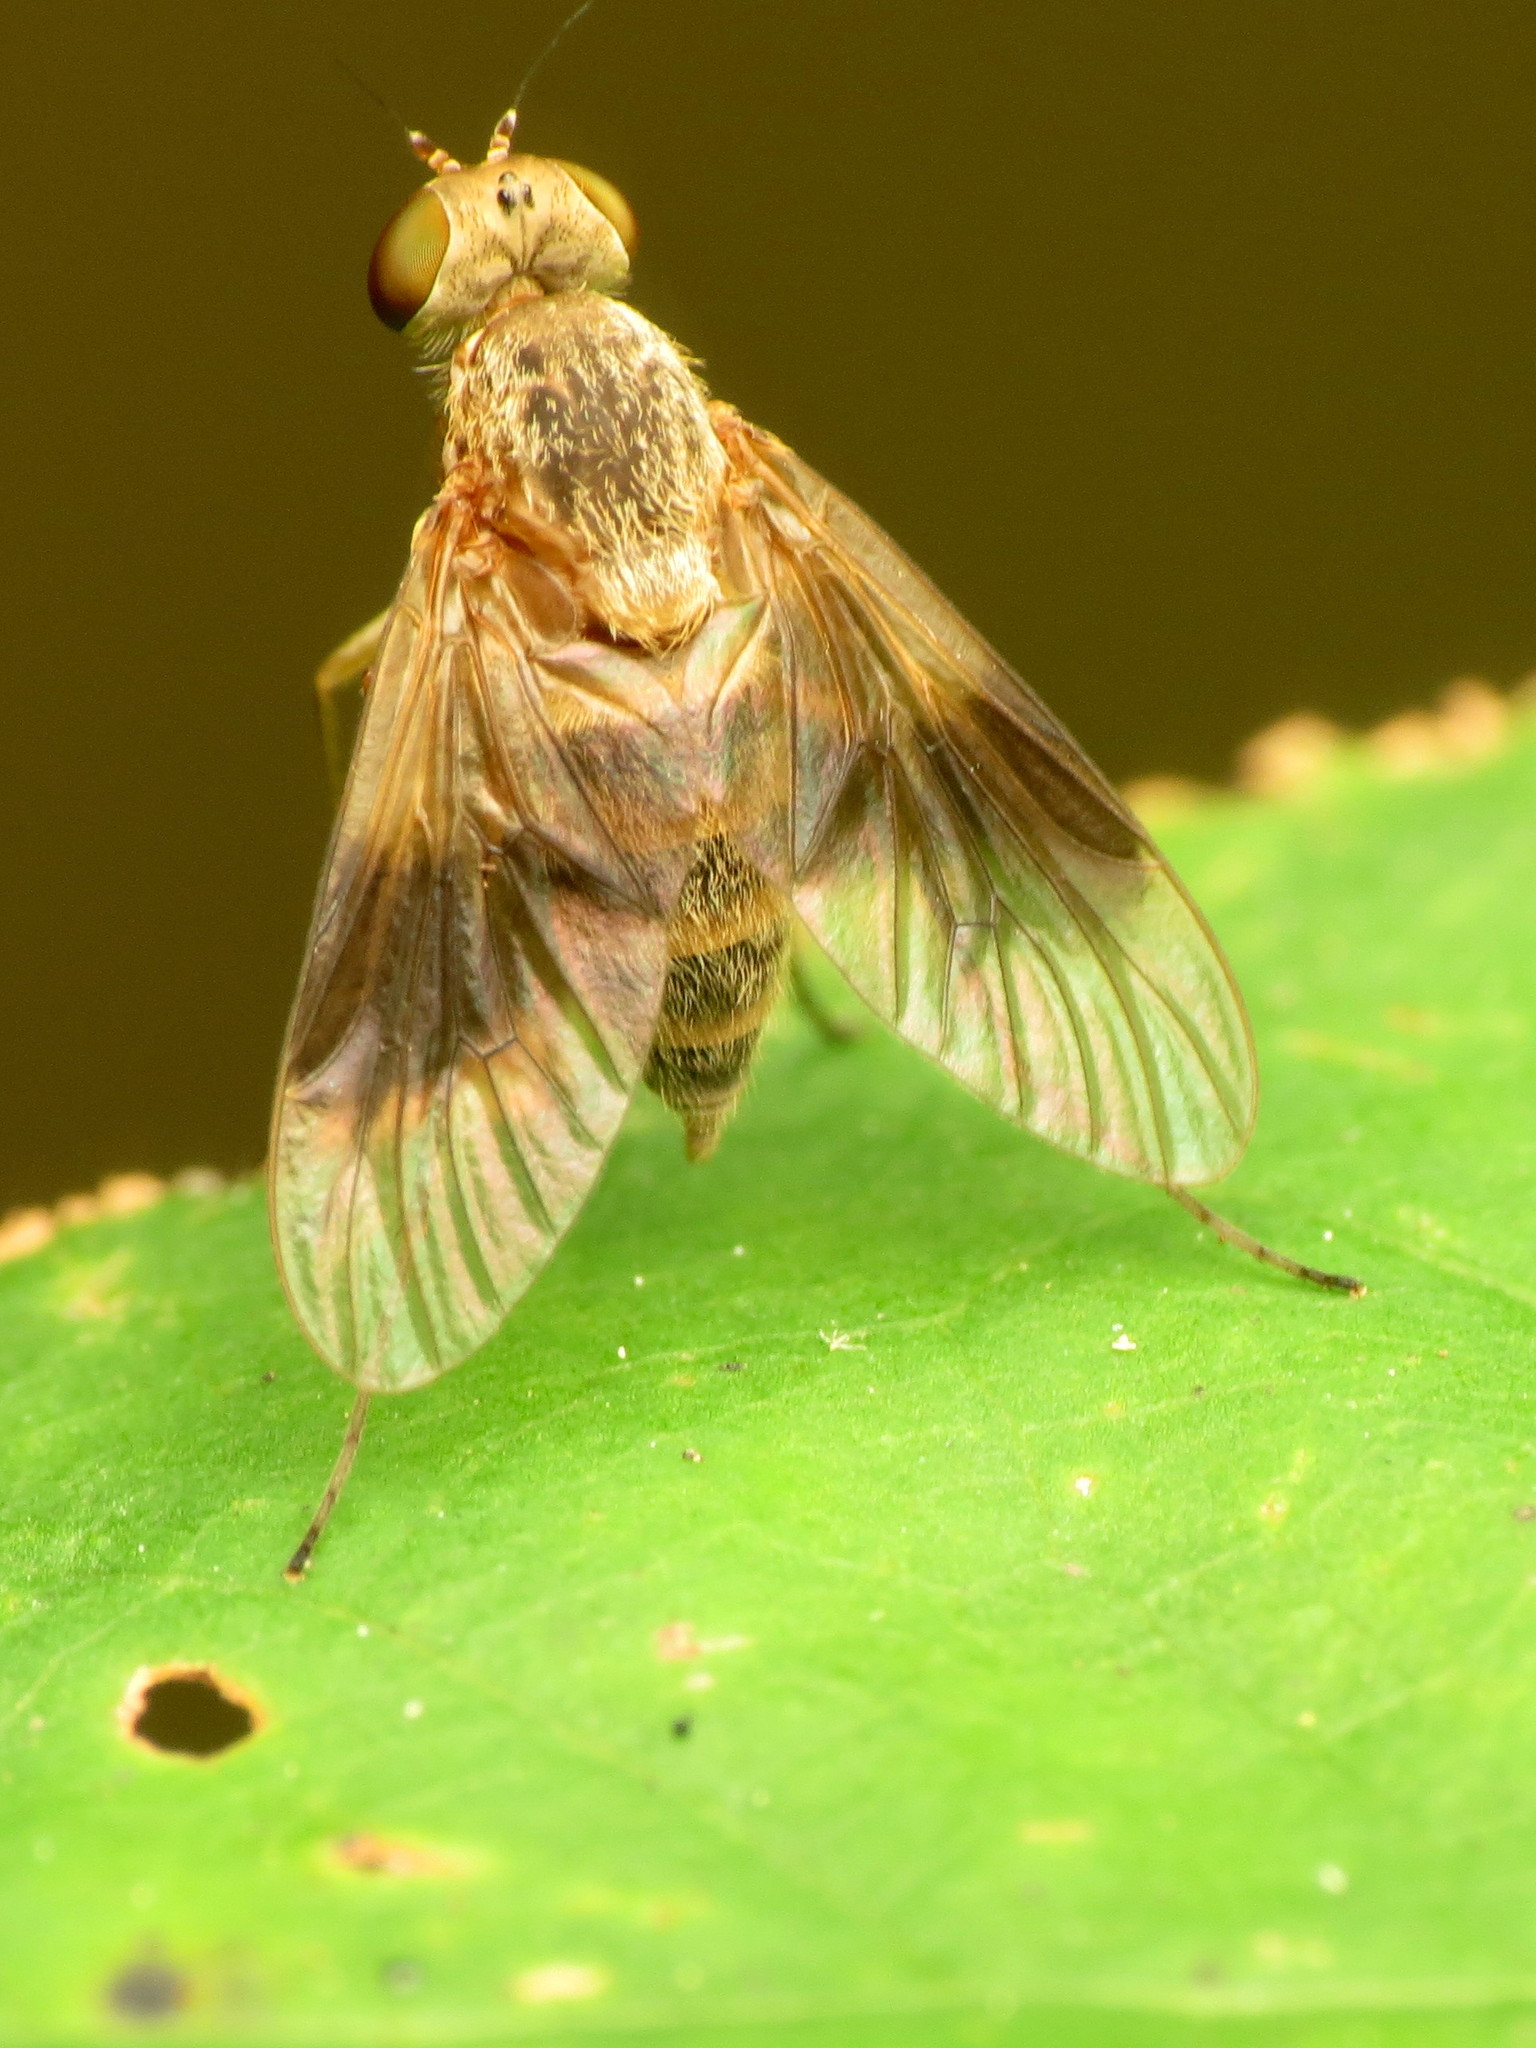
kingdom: Animalia
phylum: Arthropoda
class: Insecta
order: Diptera
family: Rhagionidae
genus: Chrysopilus
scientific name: Chrysopilus quadratus
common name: Quadrate snipe fly
